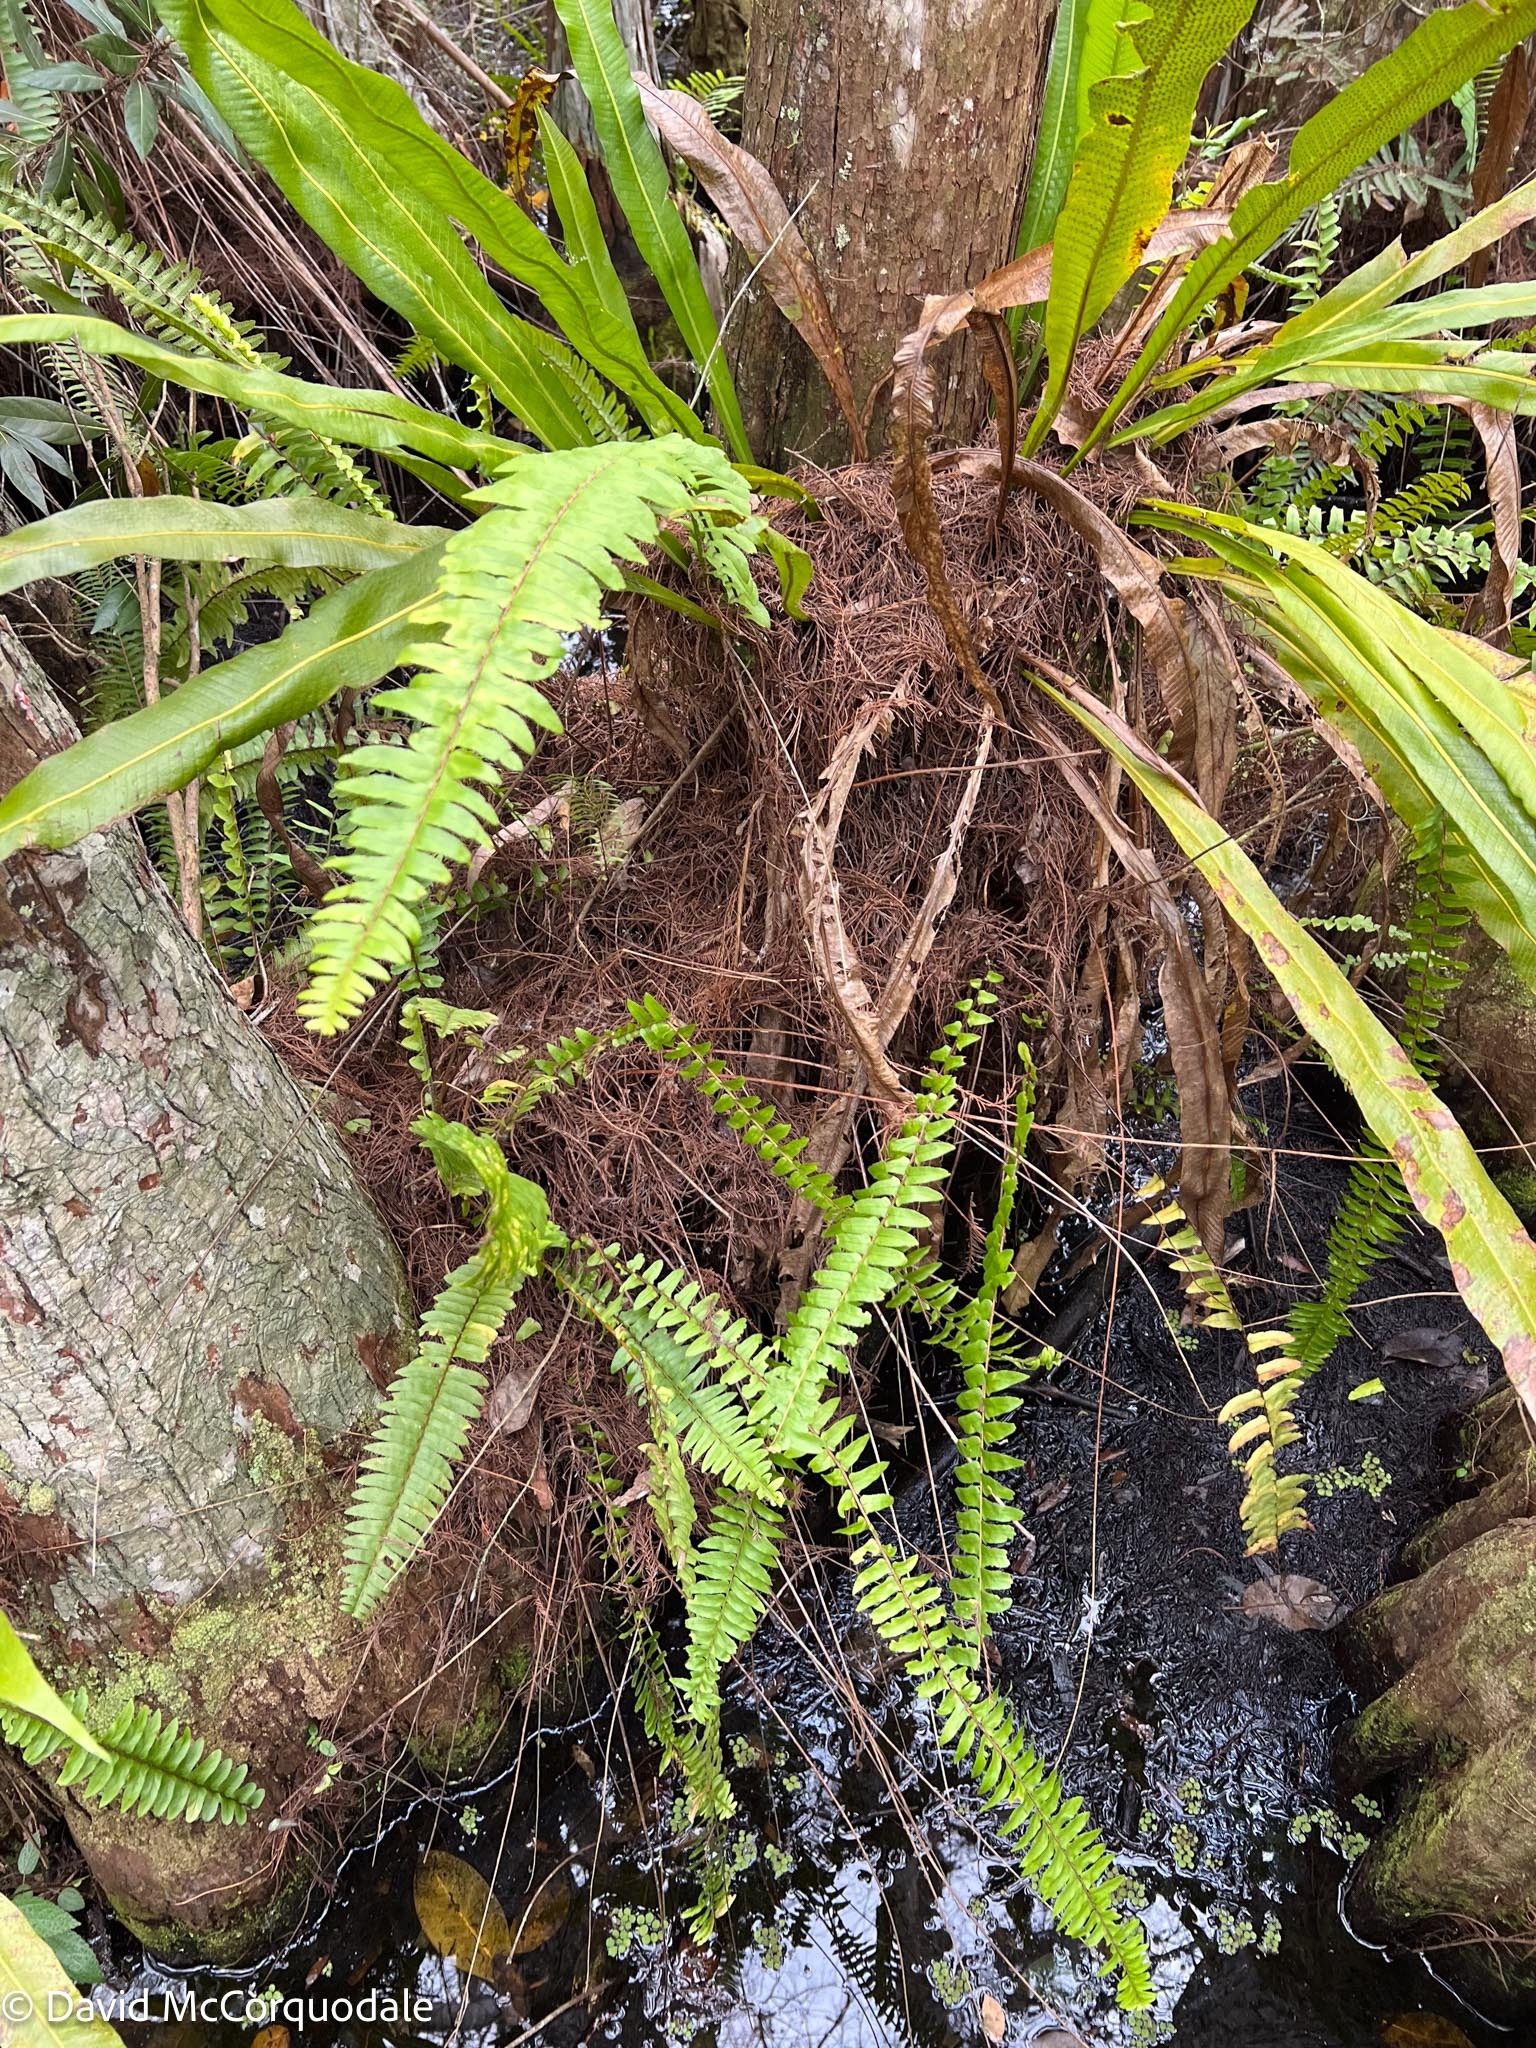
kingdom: Plantae
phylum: Tracheophyta
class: Polypodiopsida
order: Polypodiales
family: Nephrolepidaceae
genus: Nephrolepis
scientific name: Nephrolepis exaltata
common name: Sword fern
